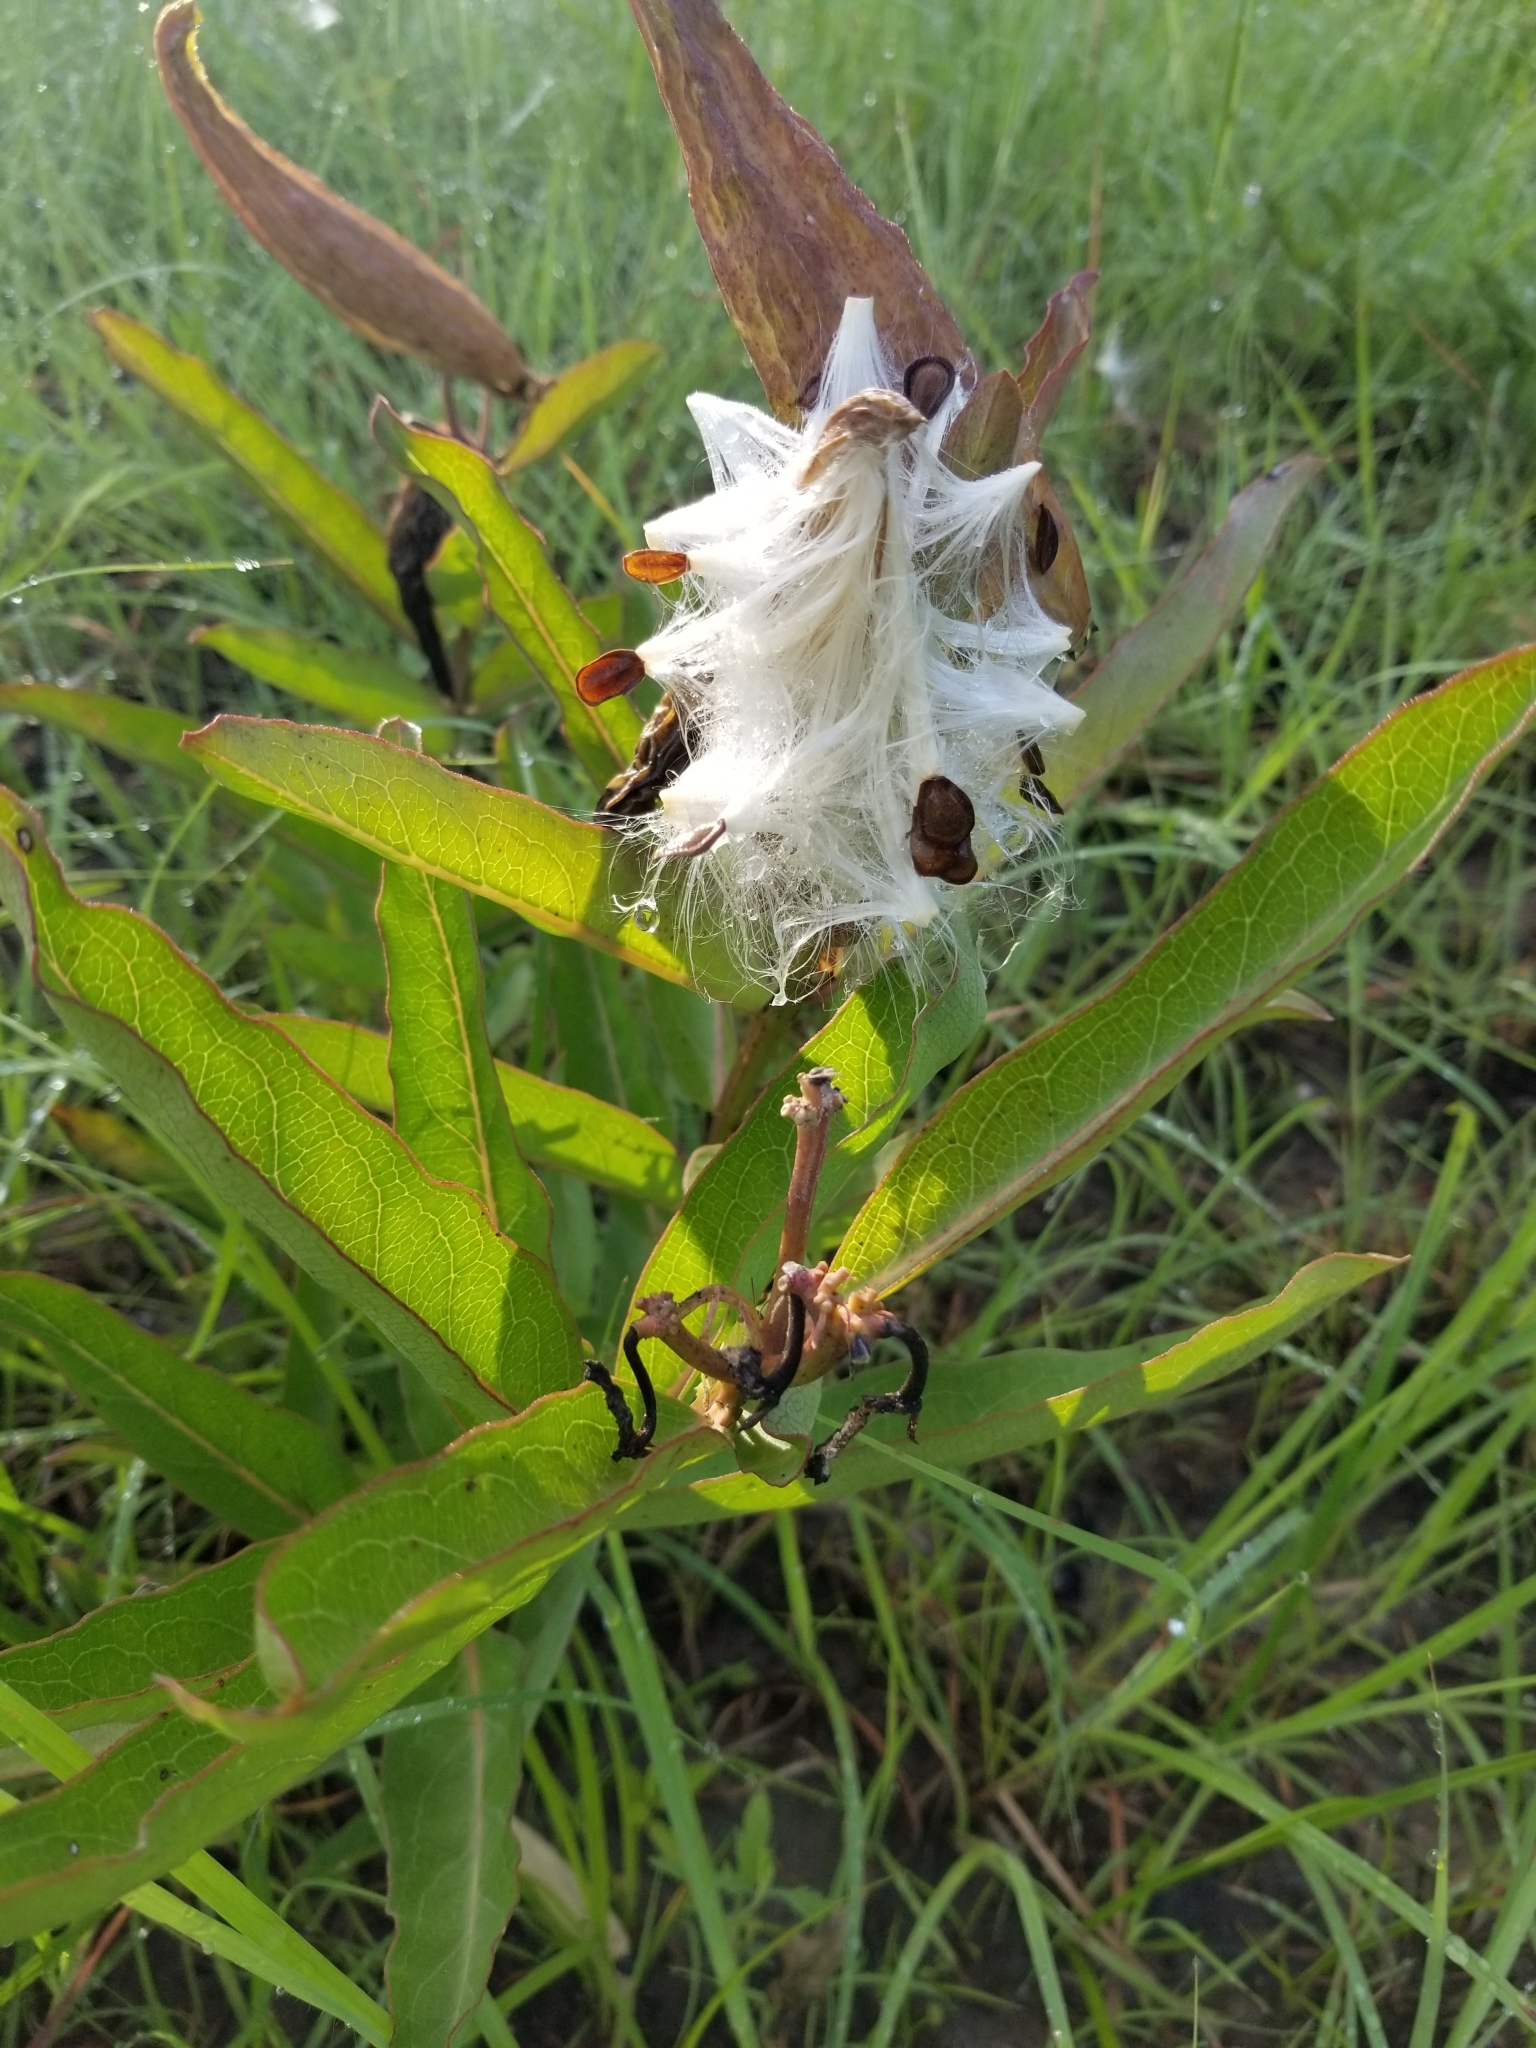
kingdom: Plantae
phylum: Tracheophyta
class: Magnoliopsida
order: Gentianales
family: Apocynaceae
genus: Asclepias
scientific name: Asclepias asperula
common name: Antelope horns
